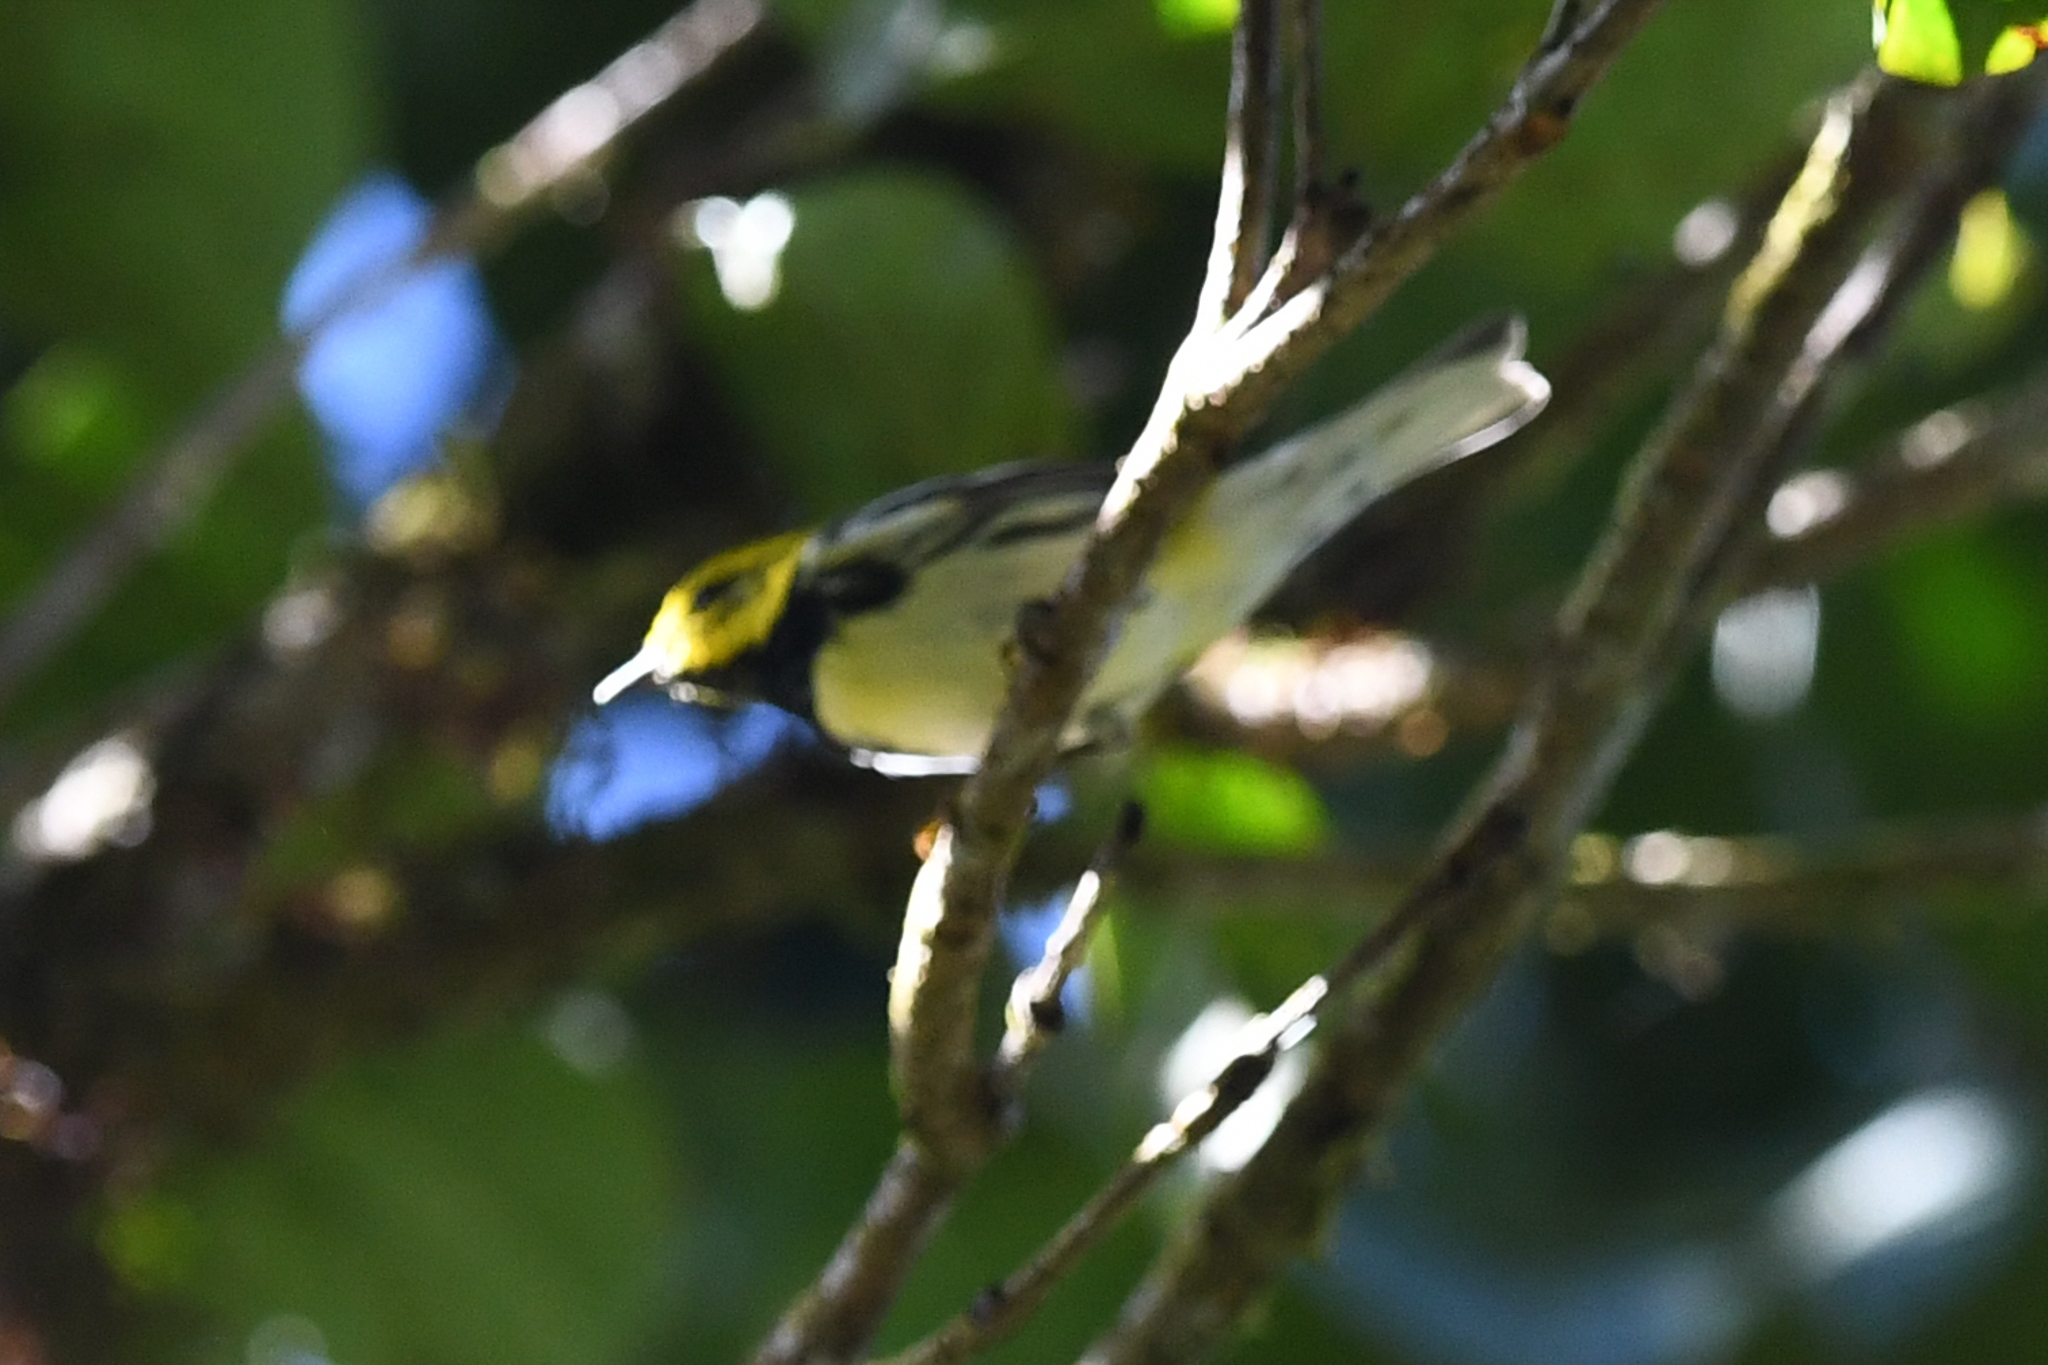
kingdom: Animalia
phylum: Chordata
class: Aves
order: Passeriformes
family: Parulidae
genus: Setophaga
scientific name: Setophaga virens
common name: Black-throated green warbler
